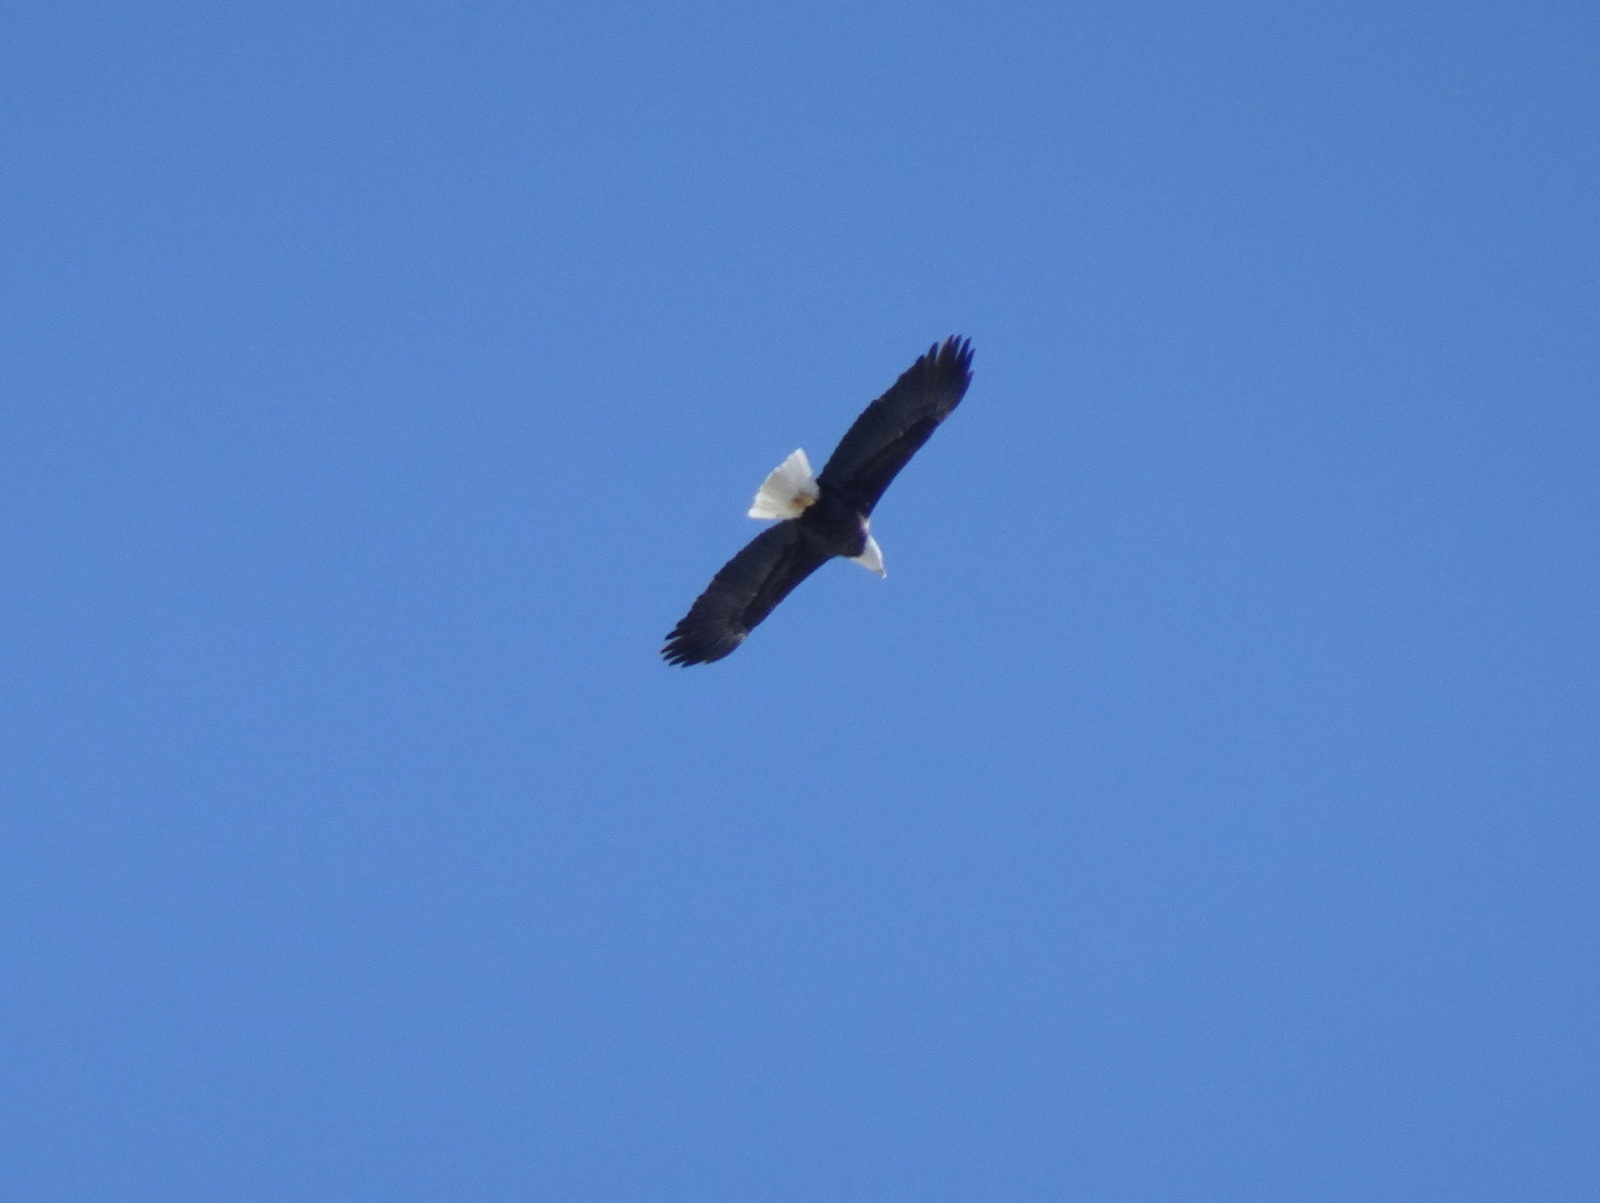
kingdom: Animalia
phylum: Chordata
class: Aves
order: Accipitriformes
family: Accipitridae
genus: Haliaeetus
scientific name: Haliaeetus leucocephalus
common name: Bald eagle
